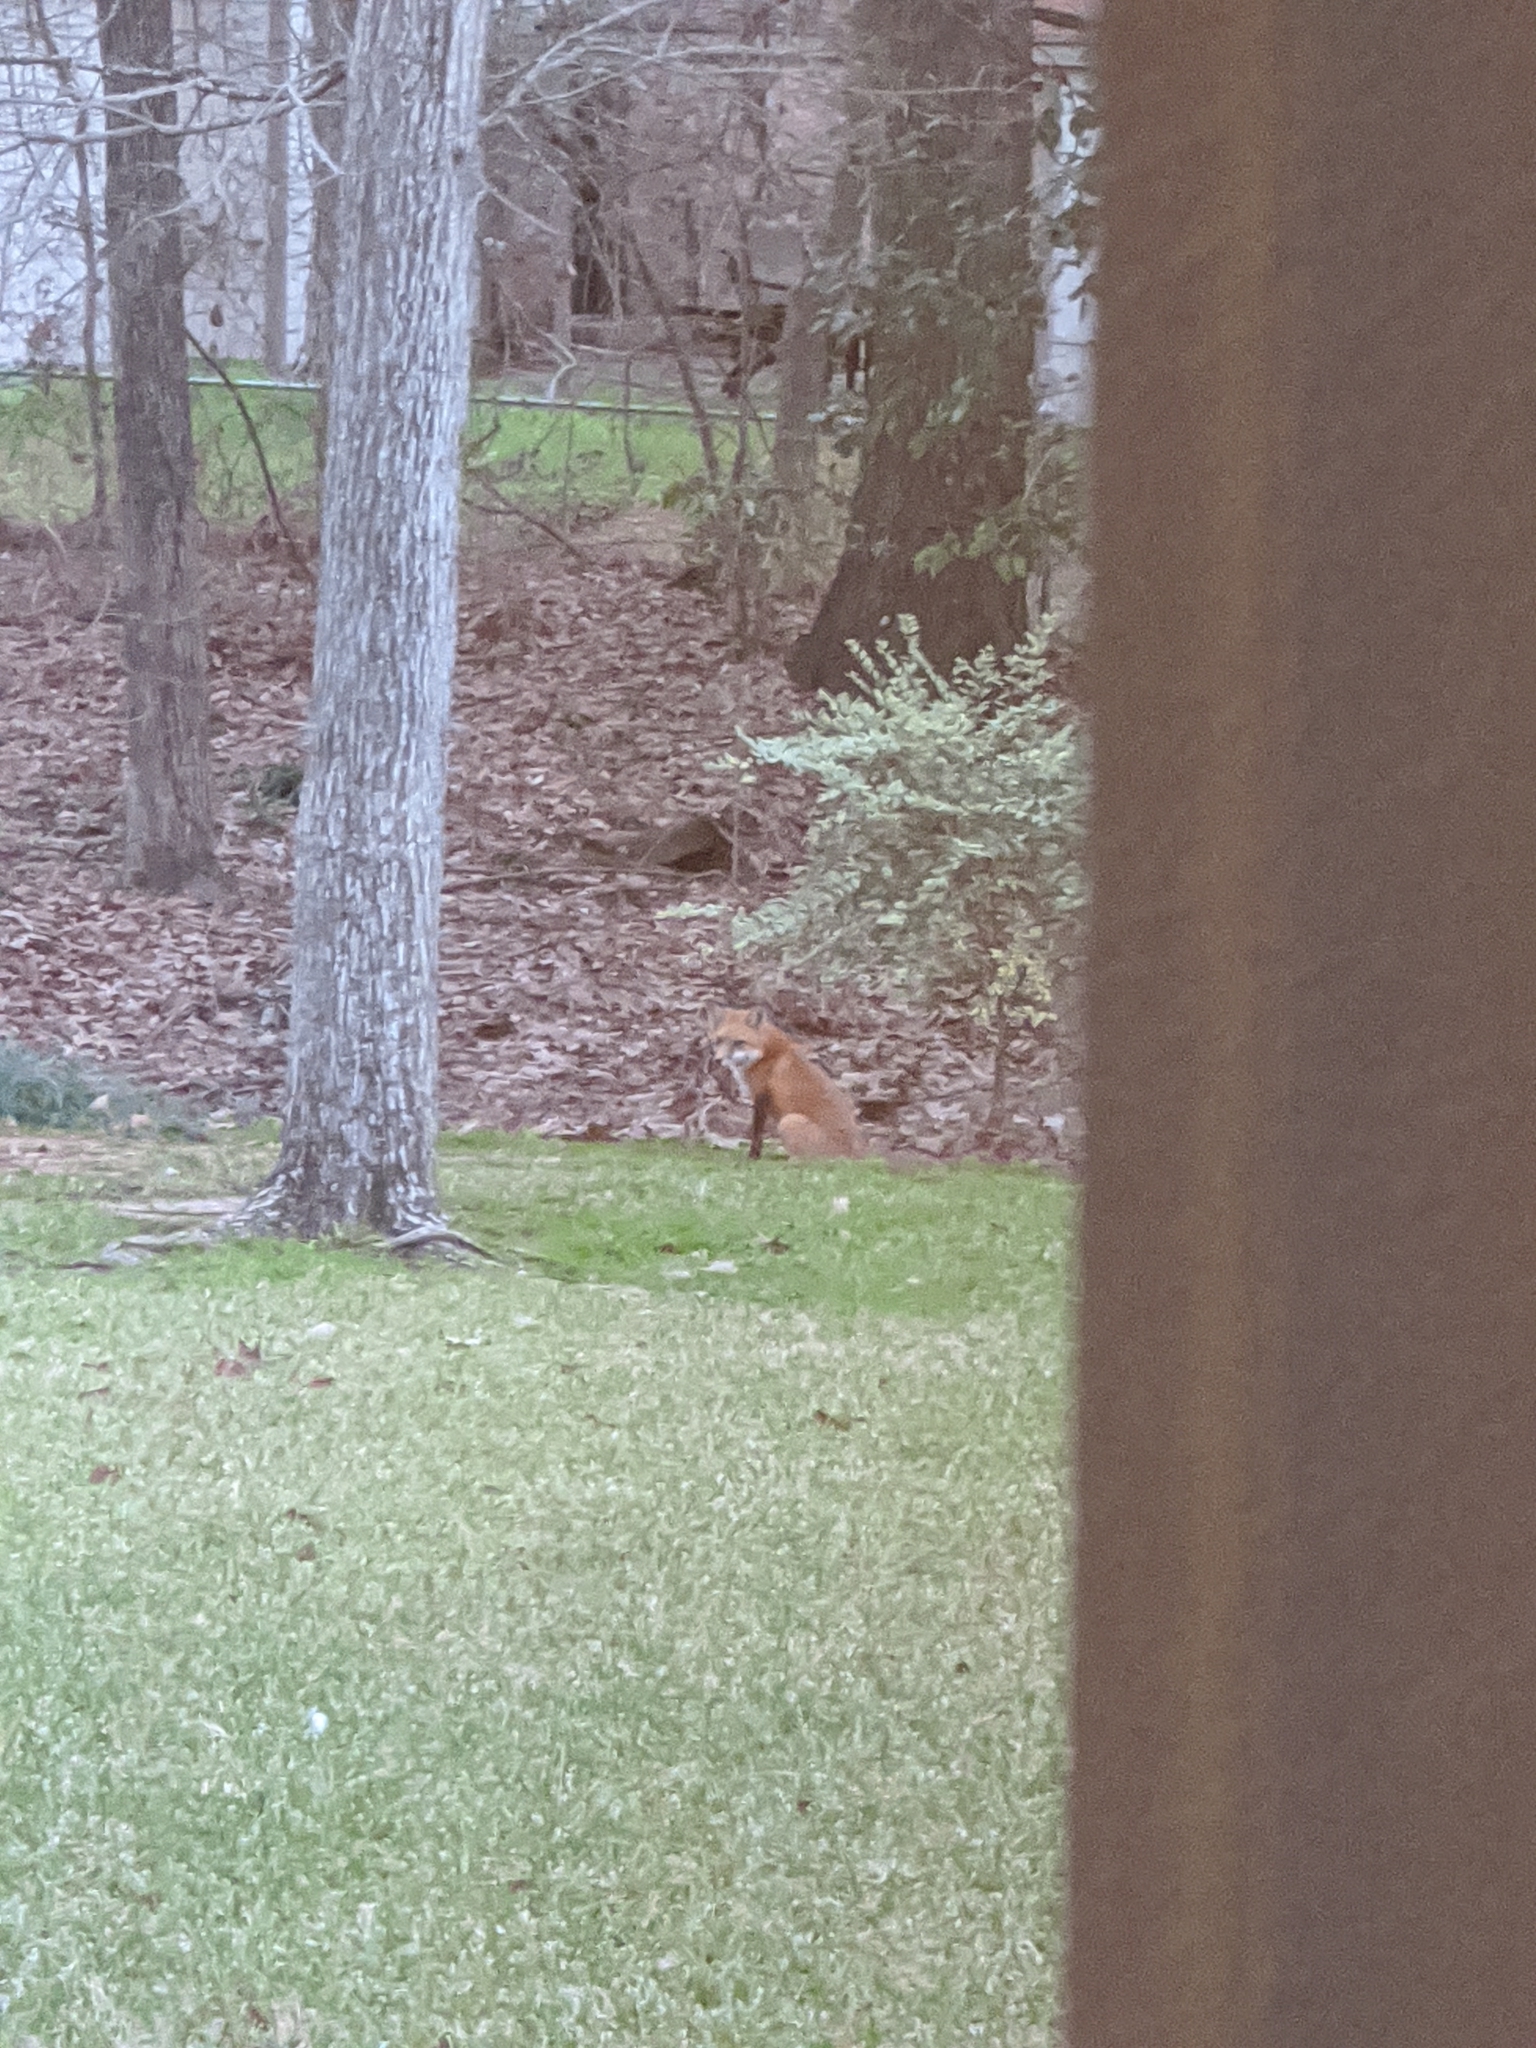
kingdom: Animalia
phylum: Chordata
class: Mammalia
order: Carnivora
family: Canidae
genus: Vulpes
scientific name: Vulpes vulpes
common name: Red fox
